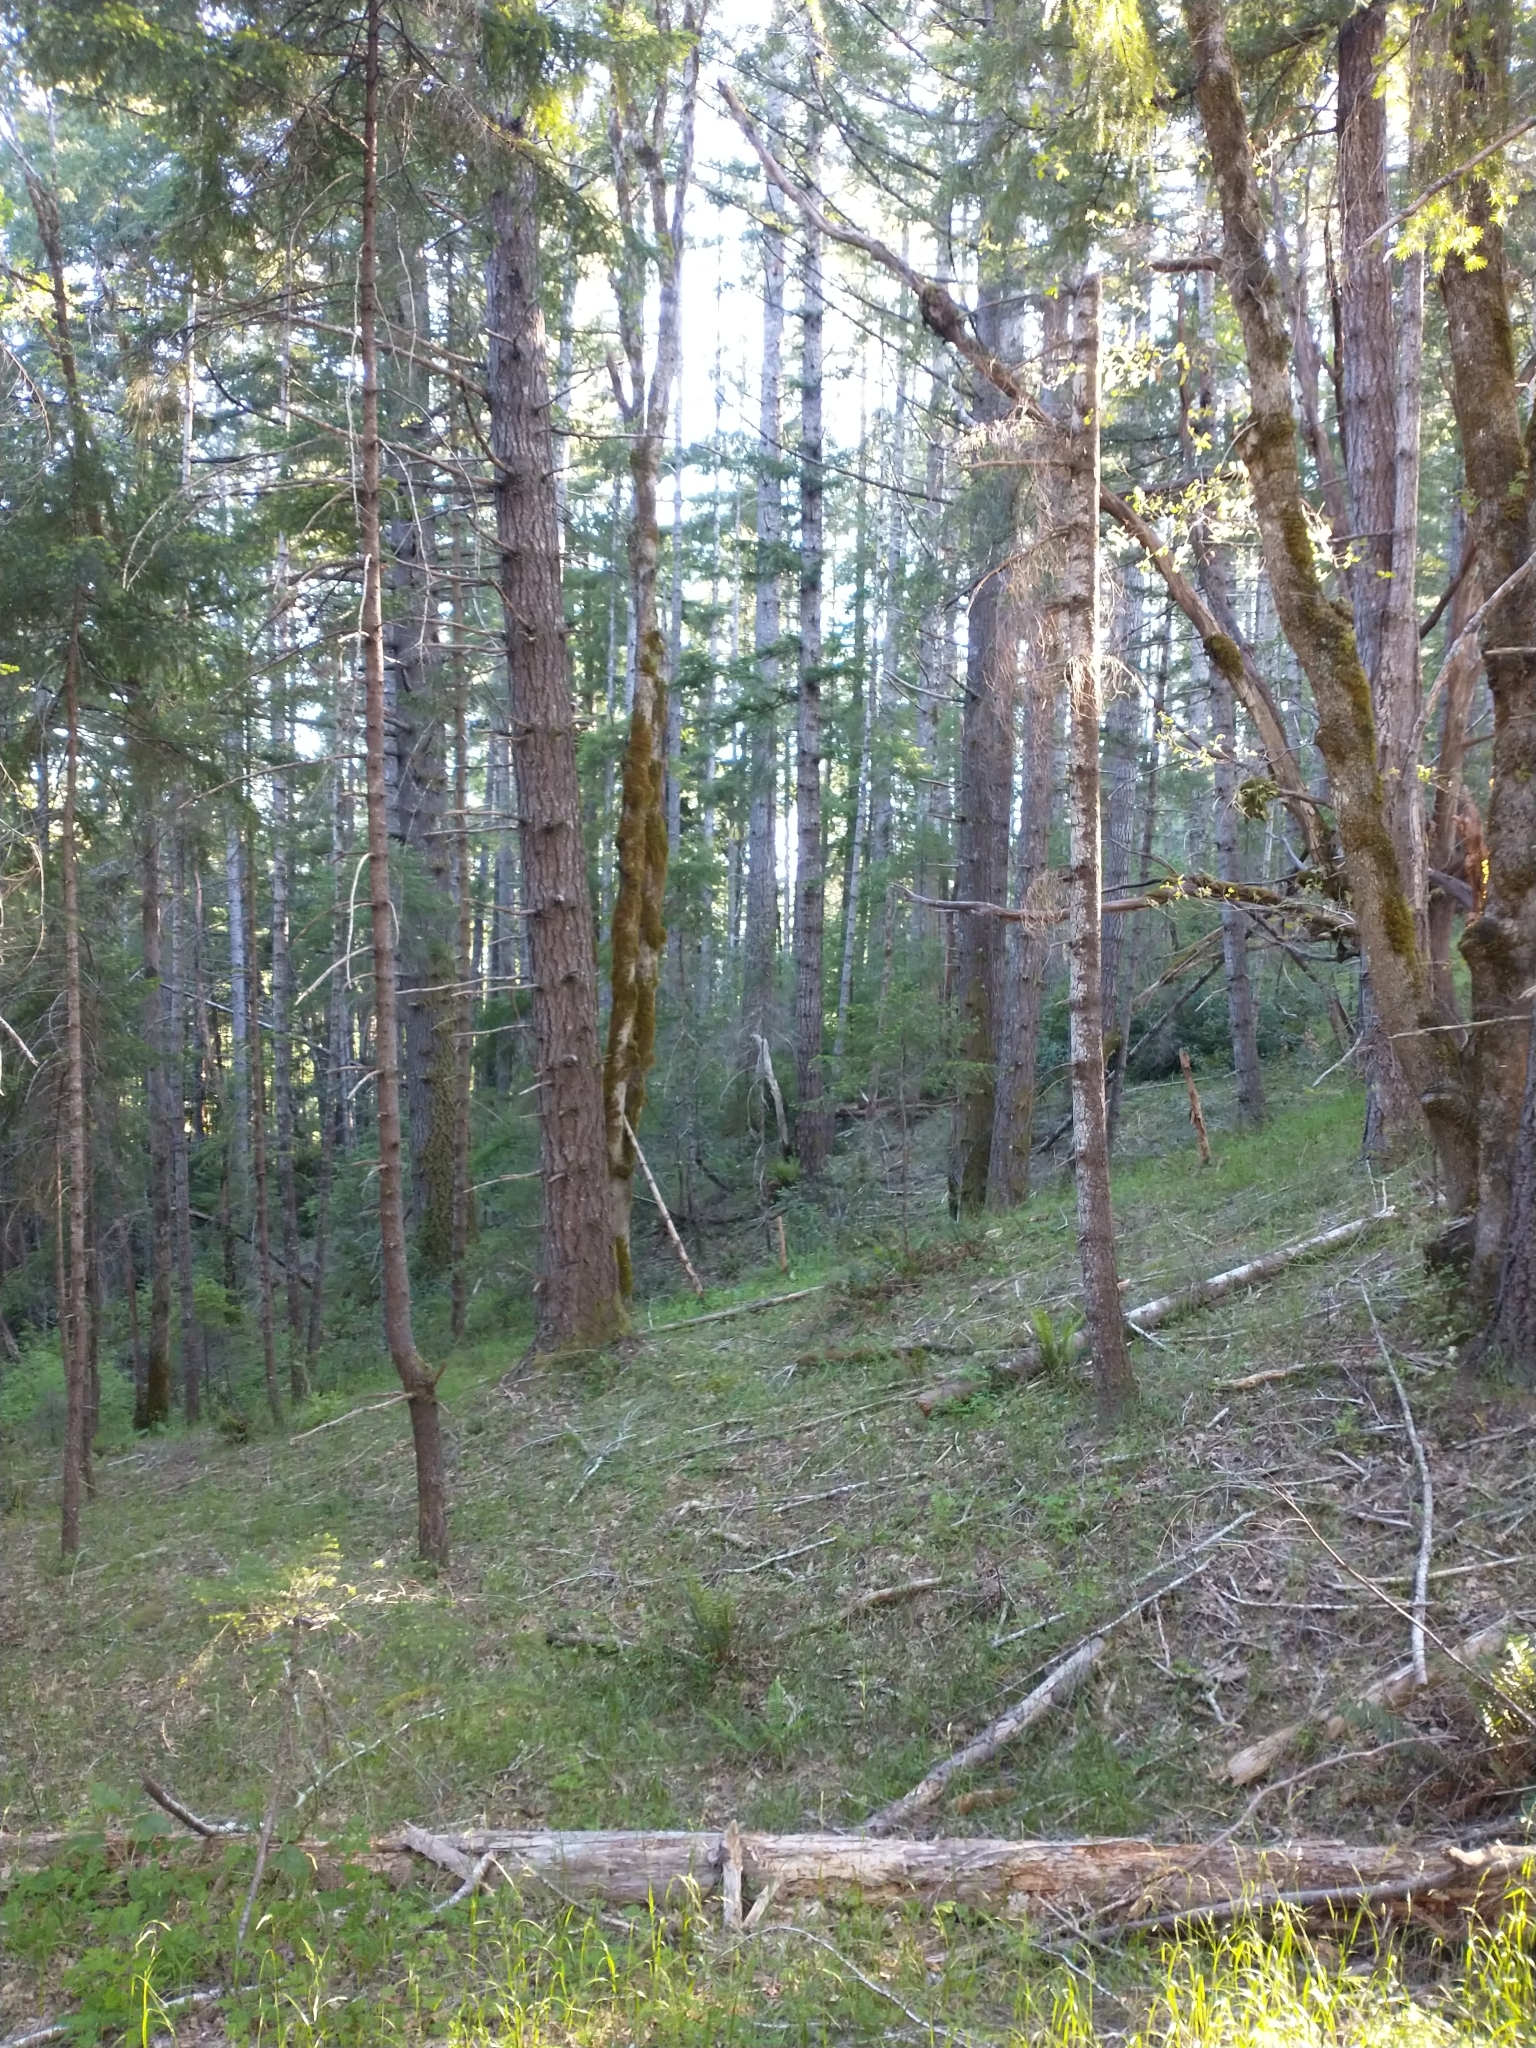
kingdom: Plantae
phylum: Tracheophyta
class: Pinopsida
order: Pinales
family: Pinaceae
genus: Pseudotsuga
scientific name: Pseudotsuga menziesii
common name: Douglas fir
